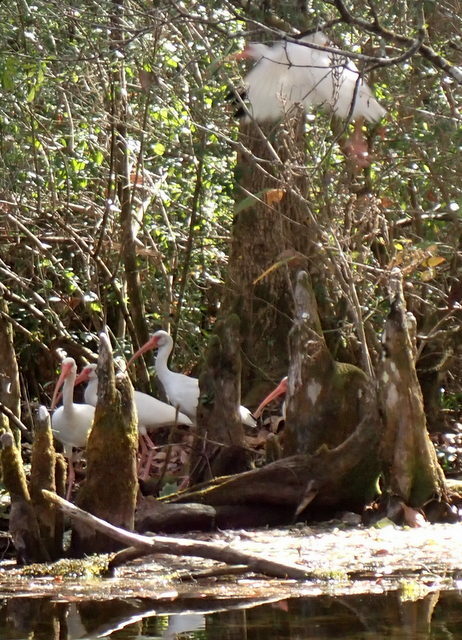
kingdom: Animalia
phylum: Chordata
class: Aves
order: Pelecaniformes
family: Threskiornithidae
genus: Eudocimus
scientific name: Eudocimus albus
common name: White ibis
